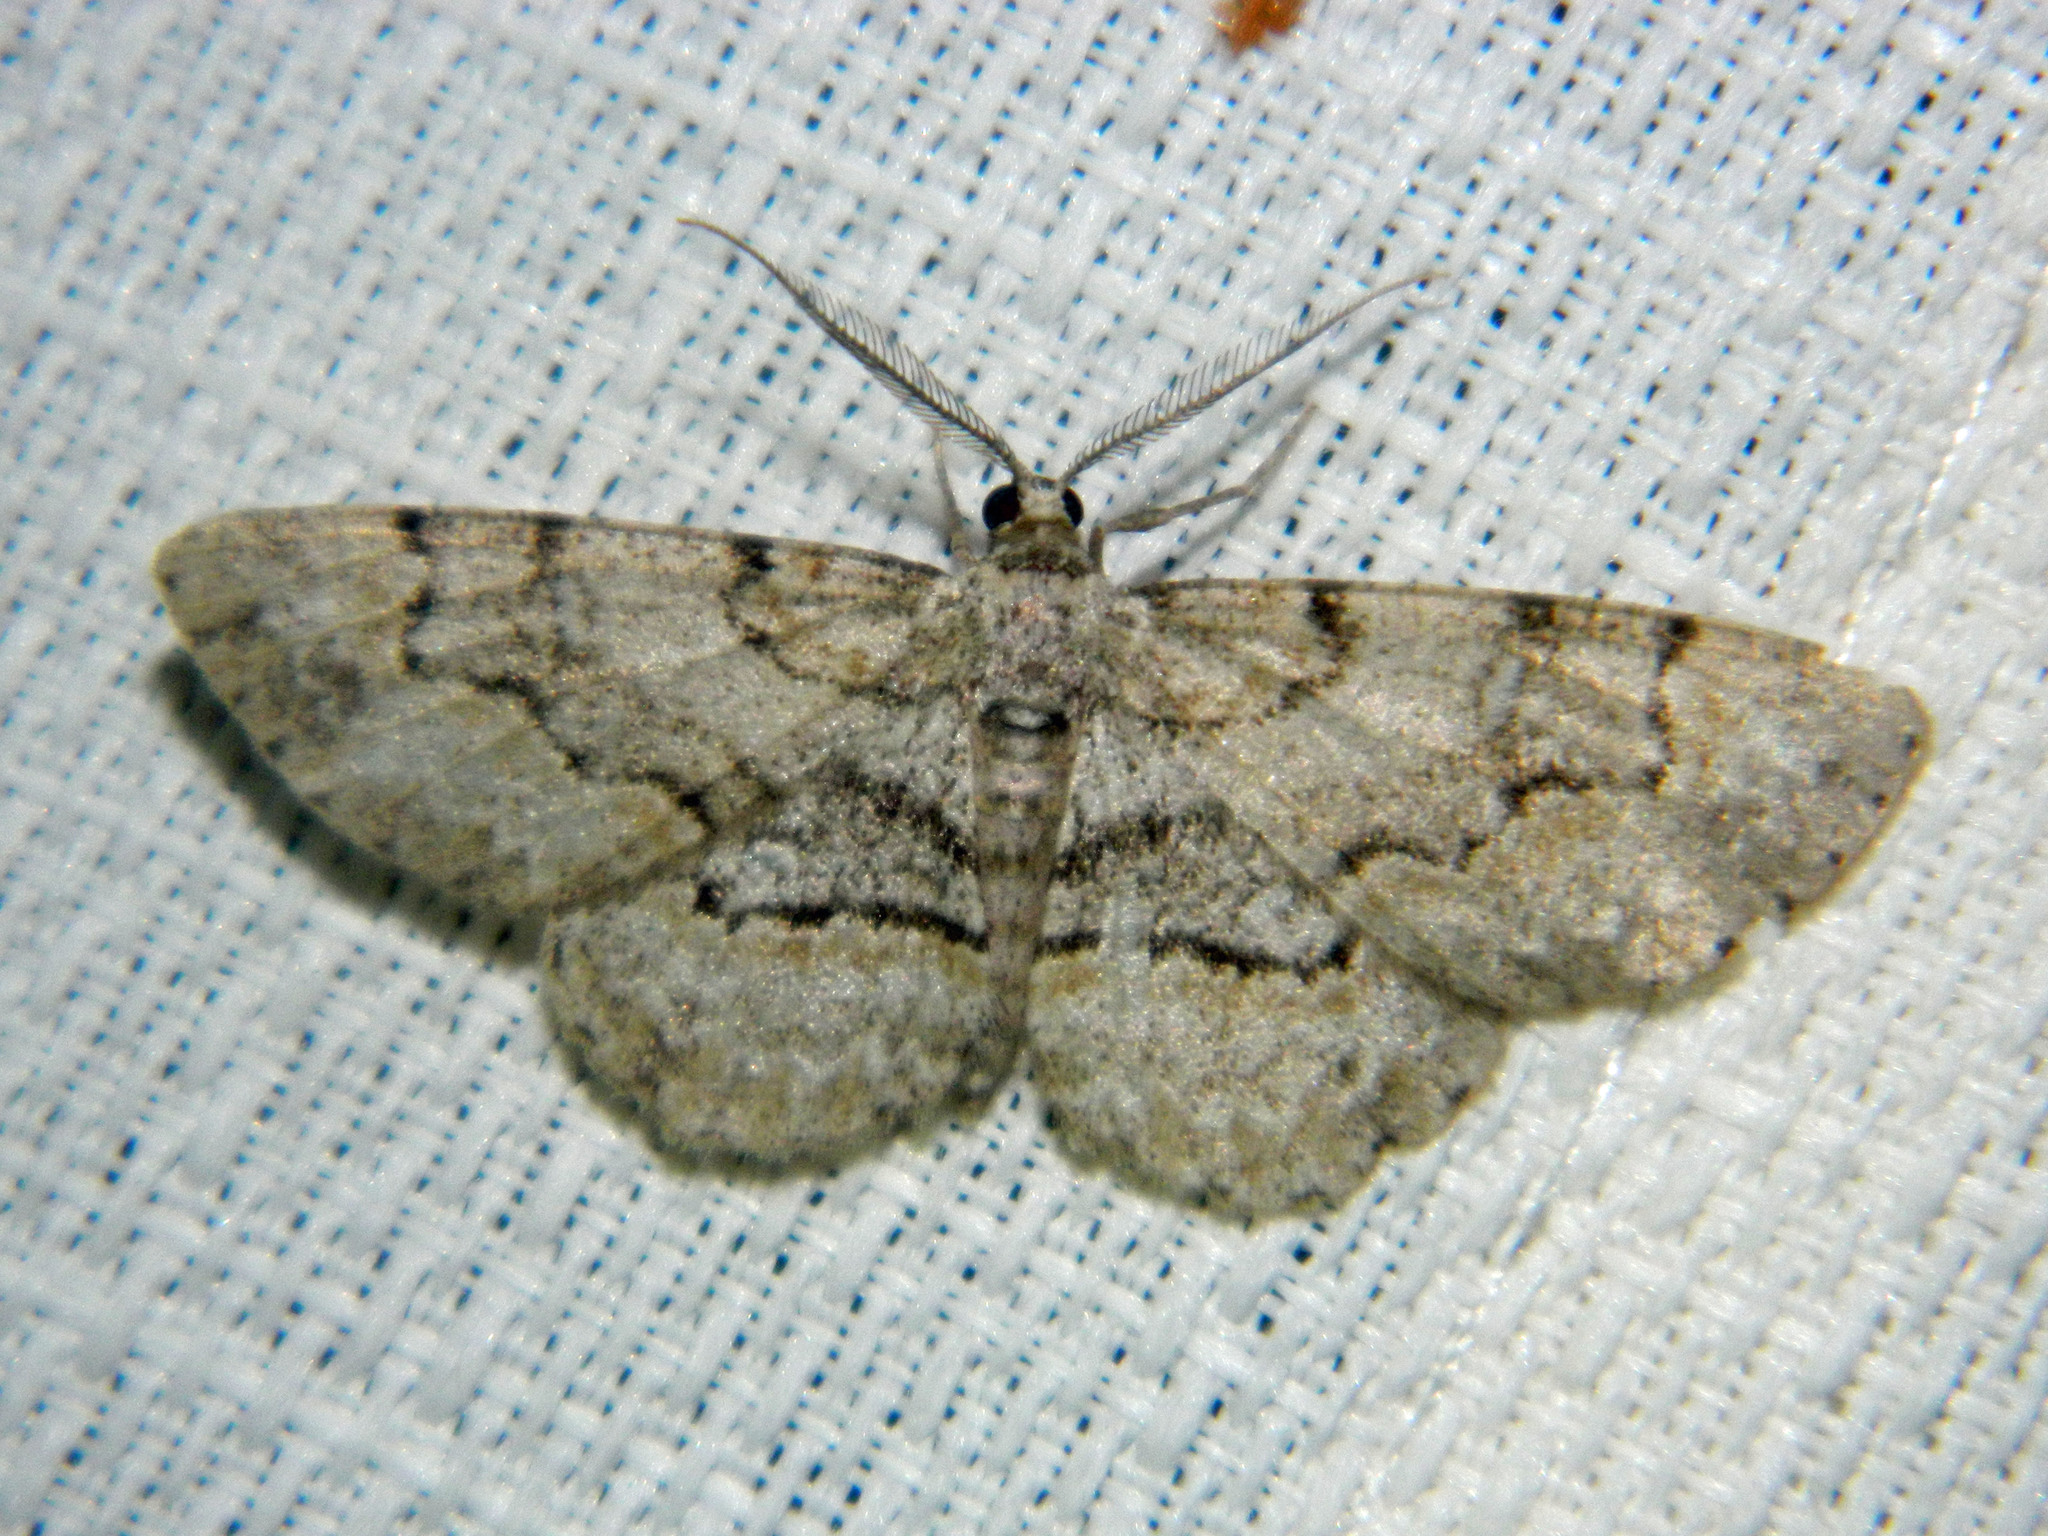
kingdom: Animalia
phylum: Arthropoda
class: Insecta
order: Lepidoptera
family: Geometridae
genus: Iridopsis
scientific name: Iridopsis ephyraria
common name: Pale-winged gray
